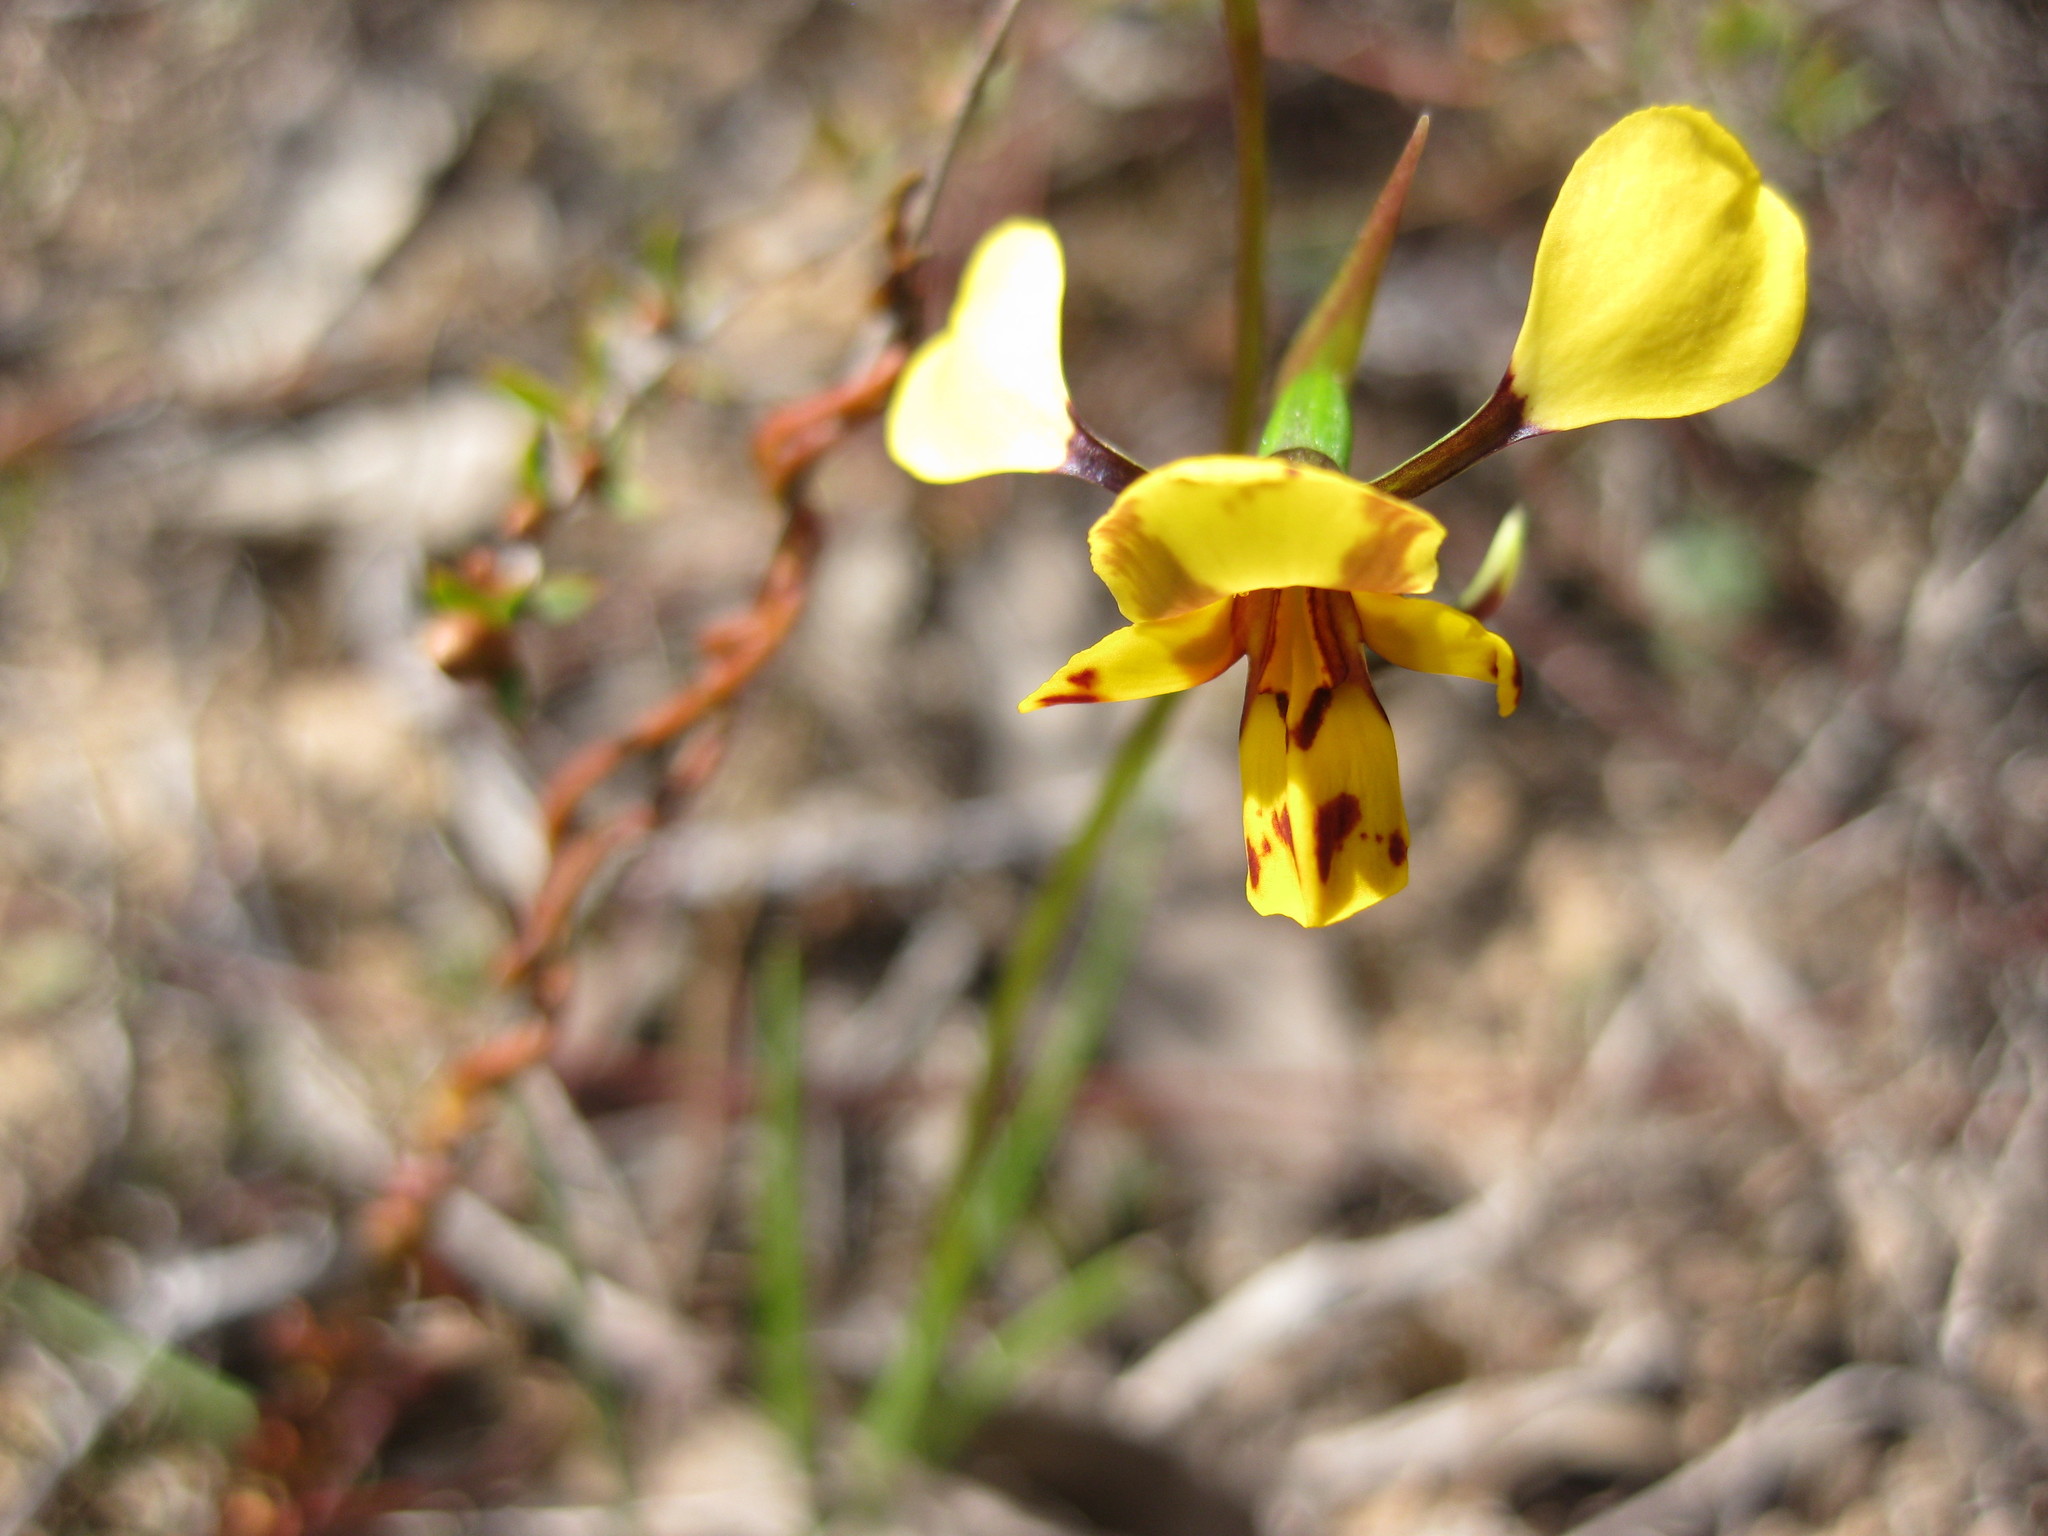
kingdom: Plantae
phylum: Tracheophyta
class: Liliopsida
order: Asparagales
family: Orchidaceae
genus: Diuris
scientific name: Diuris
